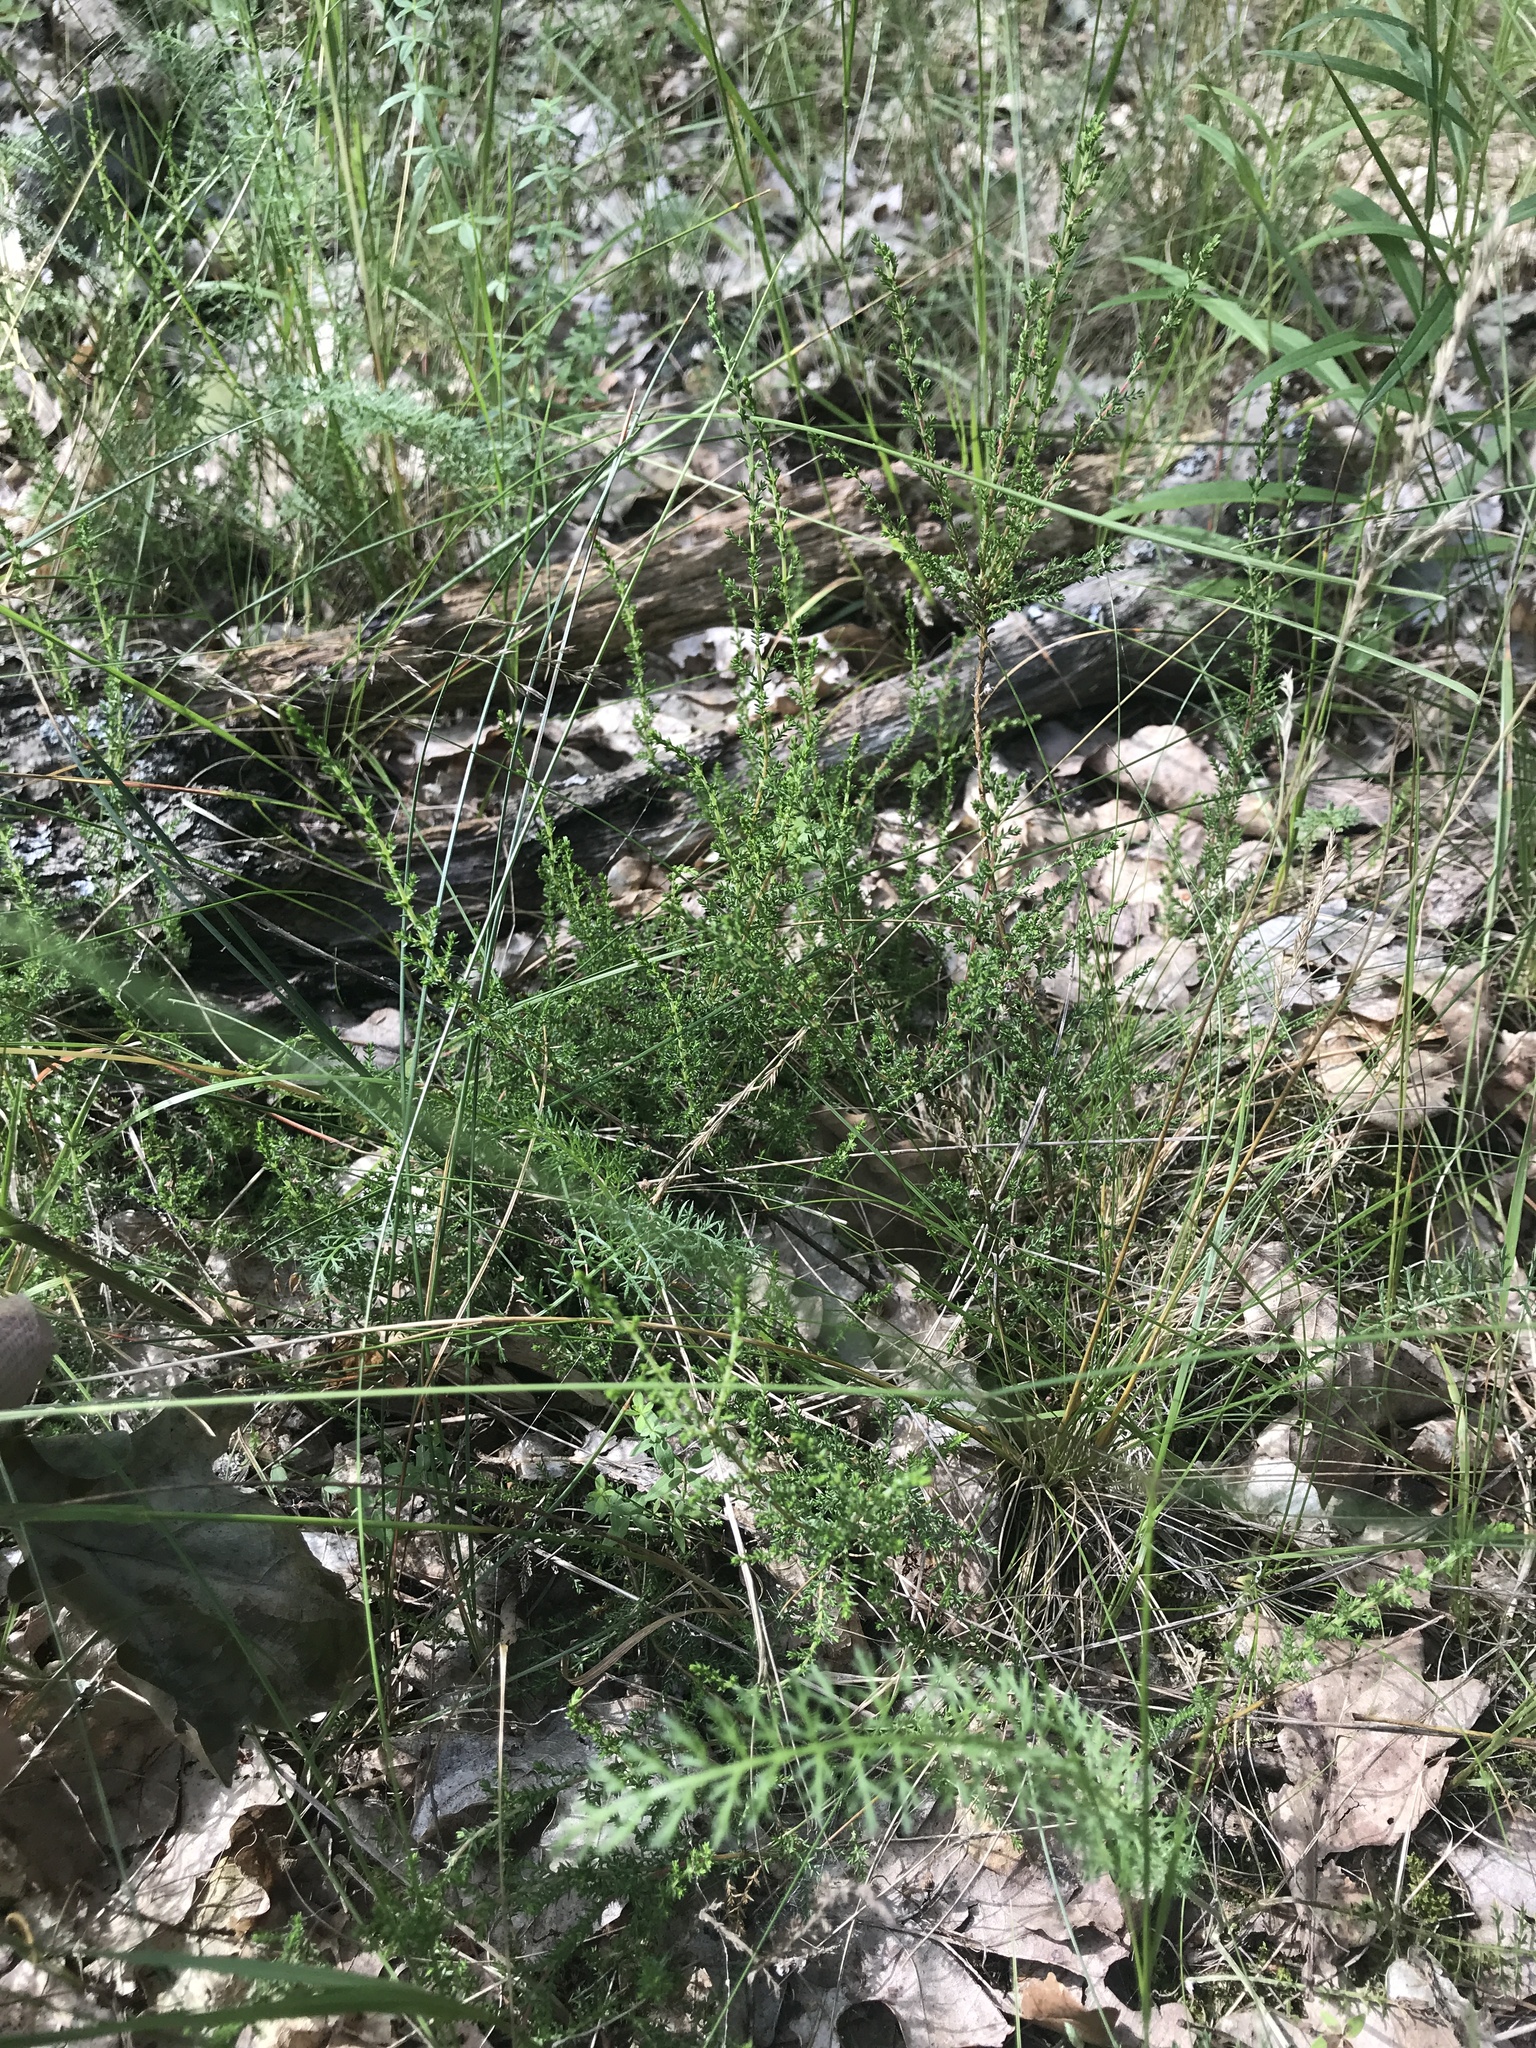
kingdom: Plantae
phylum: Tracheophyta
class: Magnoliopsida
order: Ericales
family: Ericaceae
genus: Calluna
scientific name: Calluna vulgaris
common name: Heather
